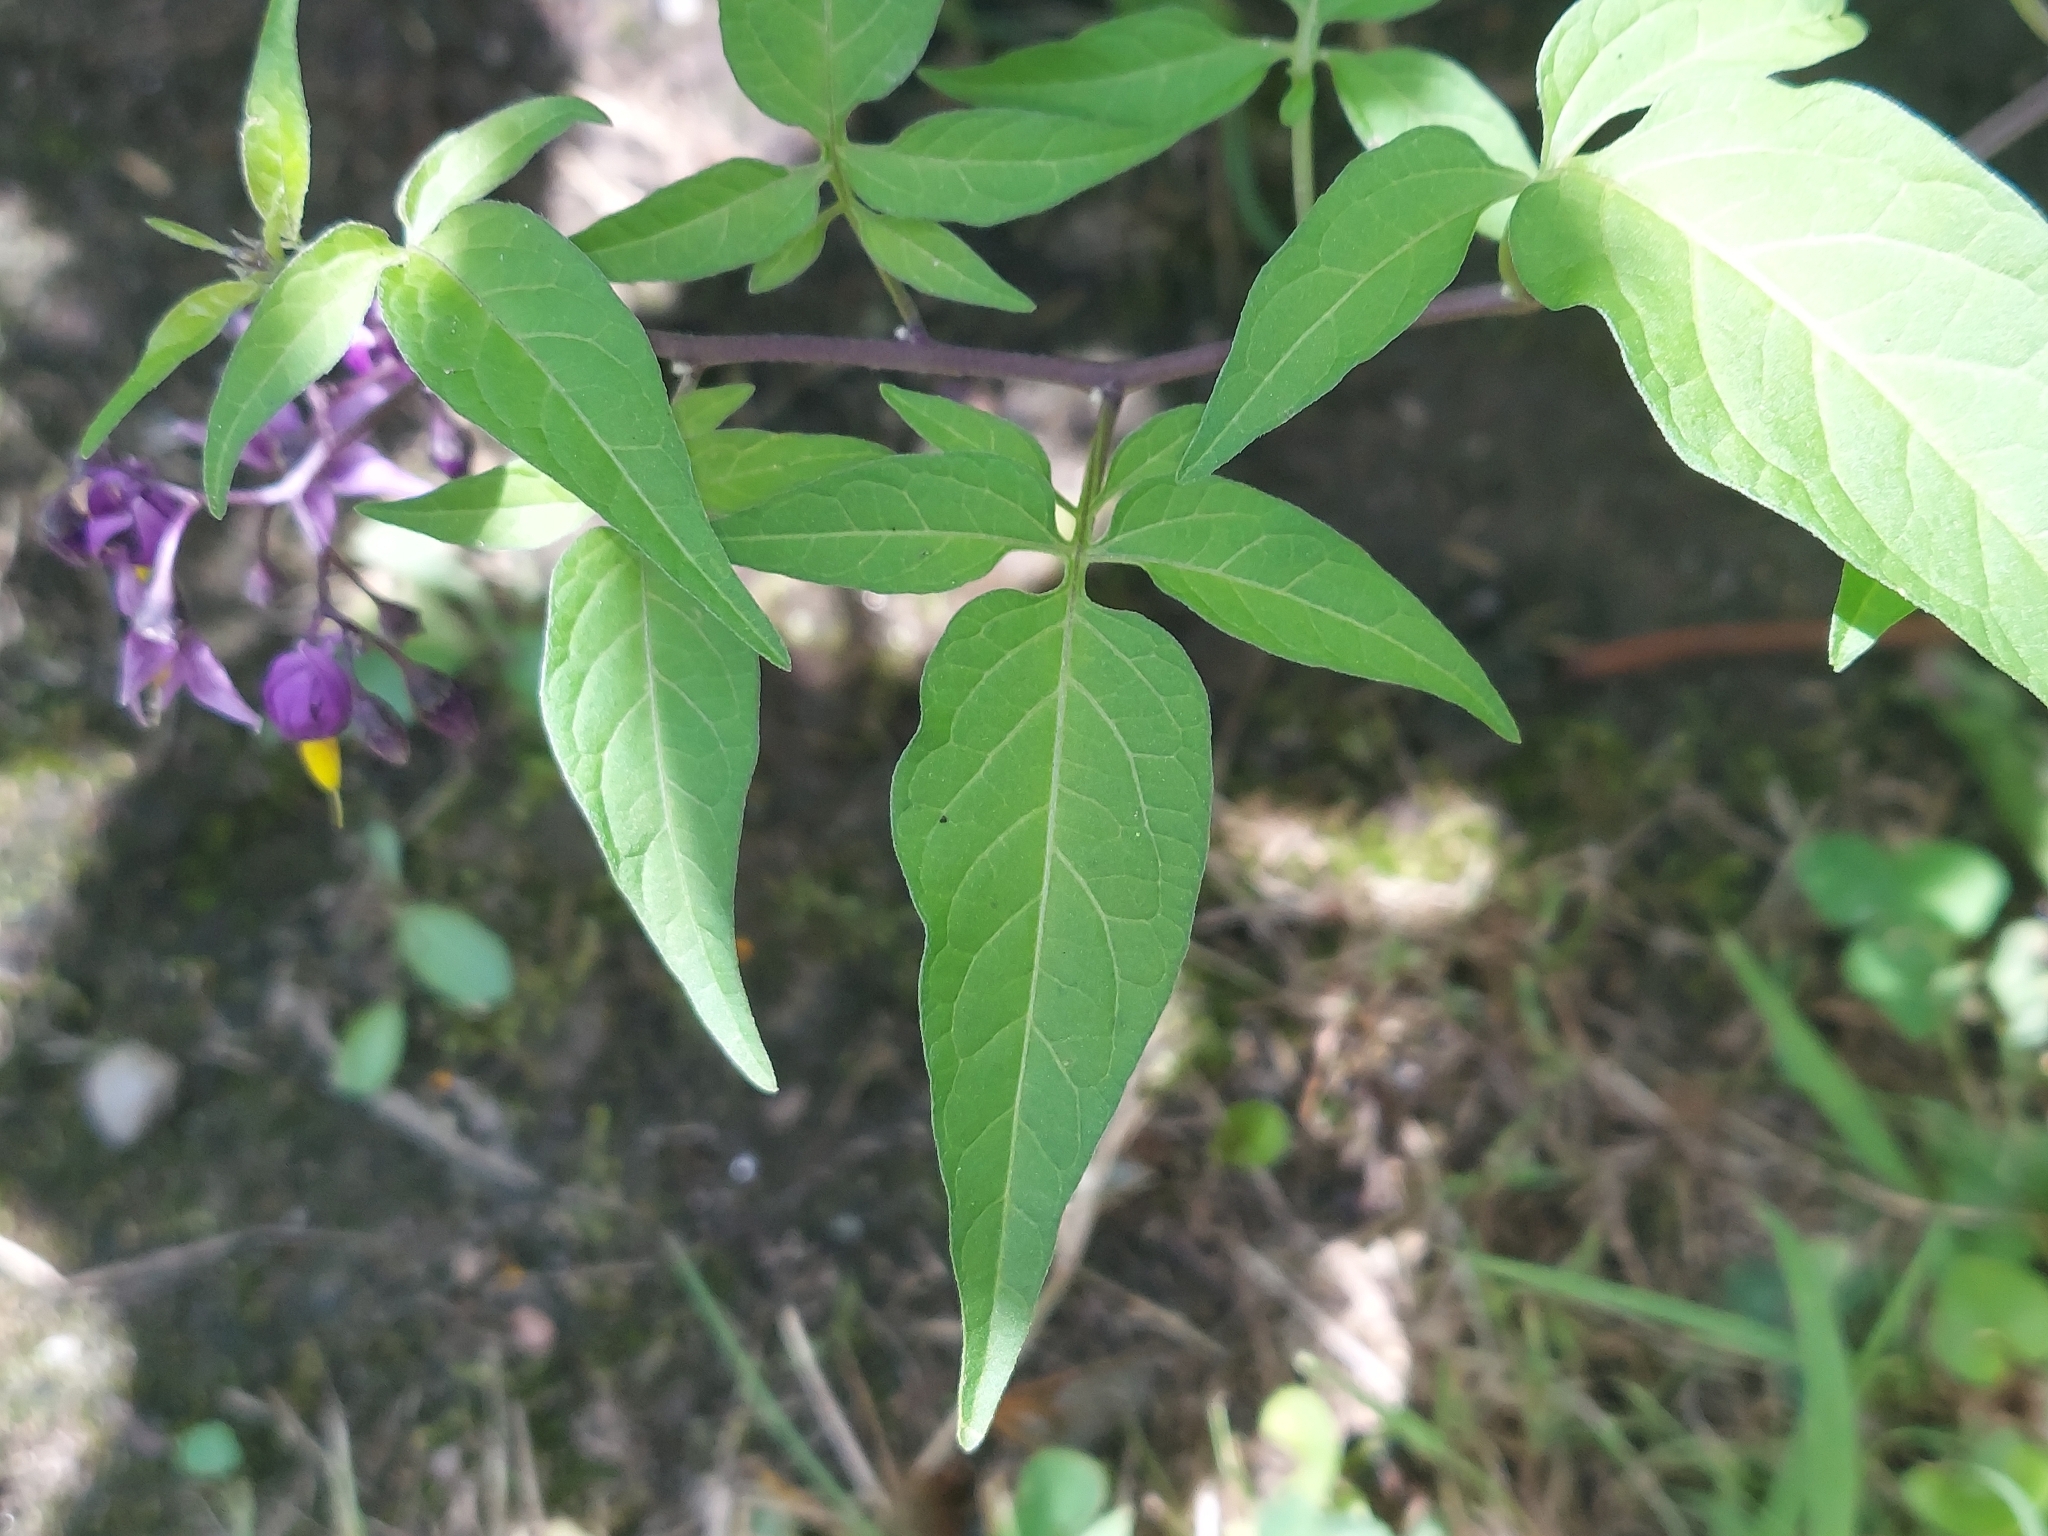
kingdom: Plantae
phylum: Tracheophyta
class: Magnoliopsida
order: Solanales
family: Solanaceae
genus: Solanum
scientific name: Solanum dulcamara
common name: Climbing nightshade
